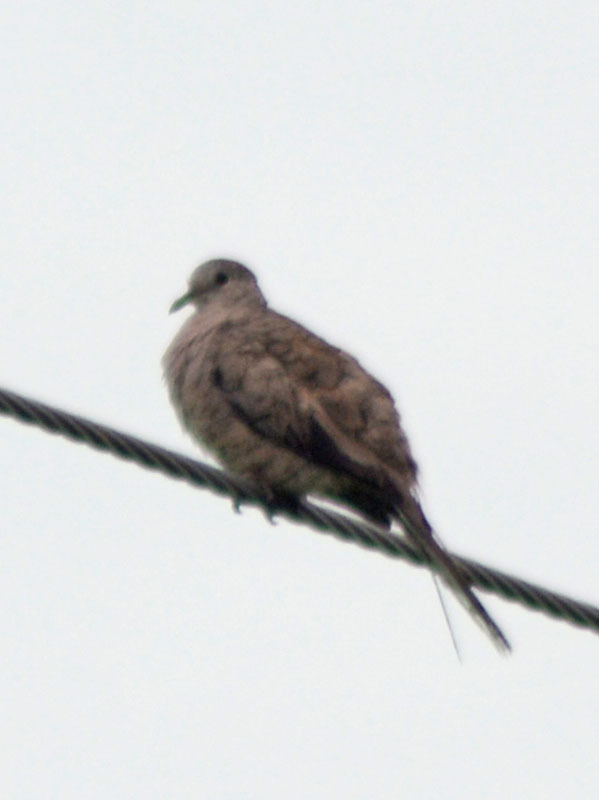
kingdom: Animalia
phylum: Chordata
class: Aves
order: Columbiformes
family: Columbidae
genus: Columbina
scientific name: Columbina inca
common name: Inca dove
